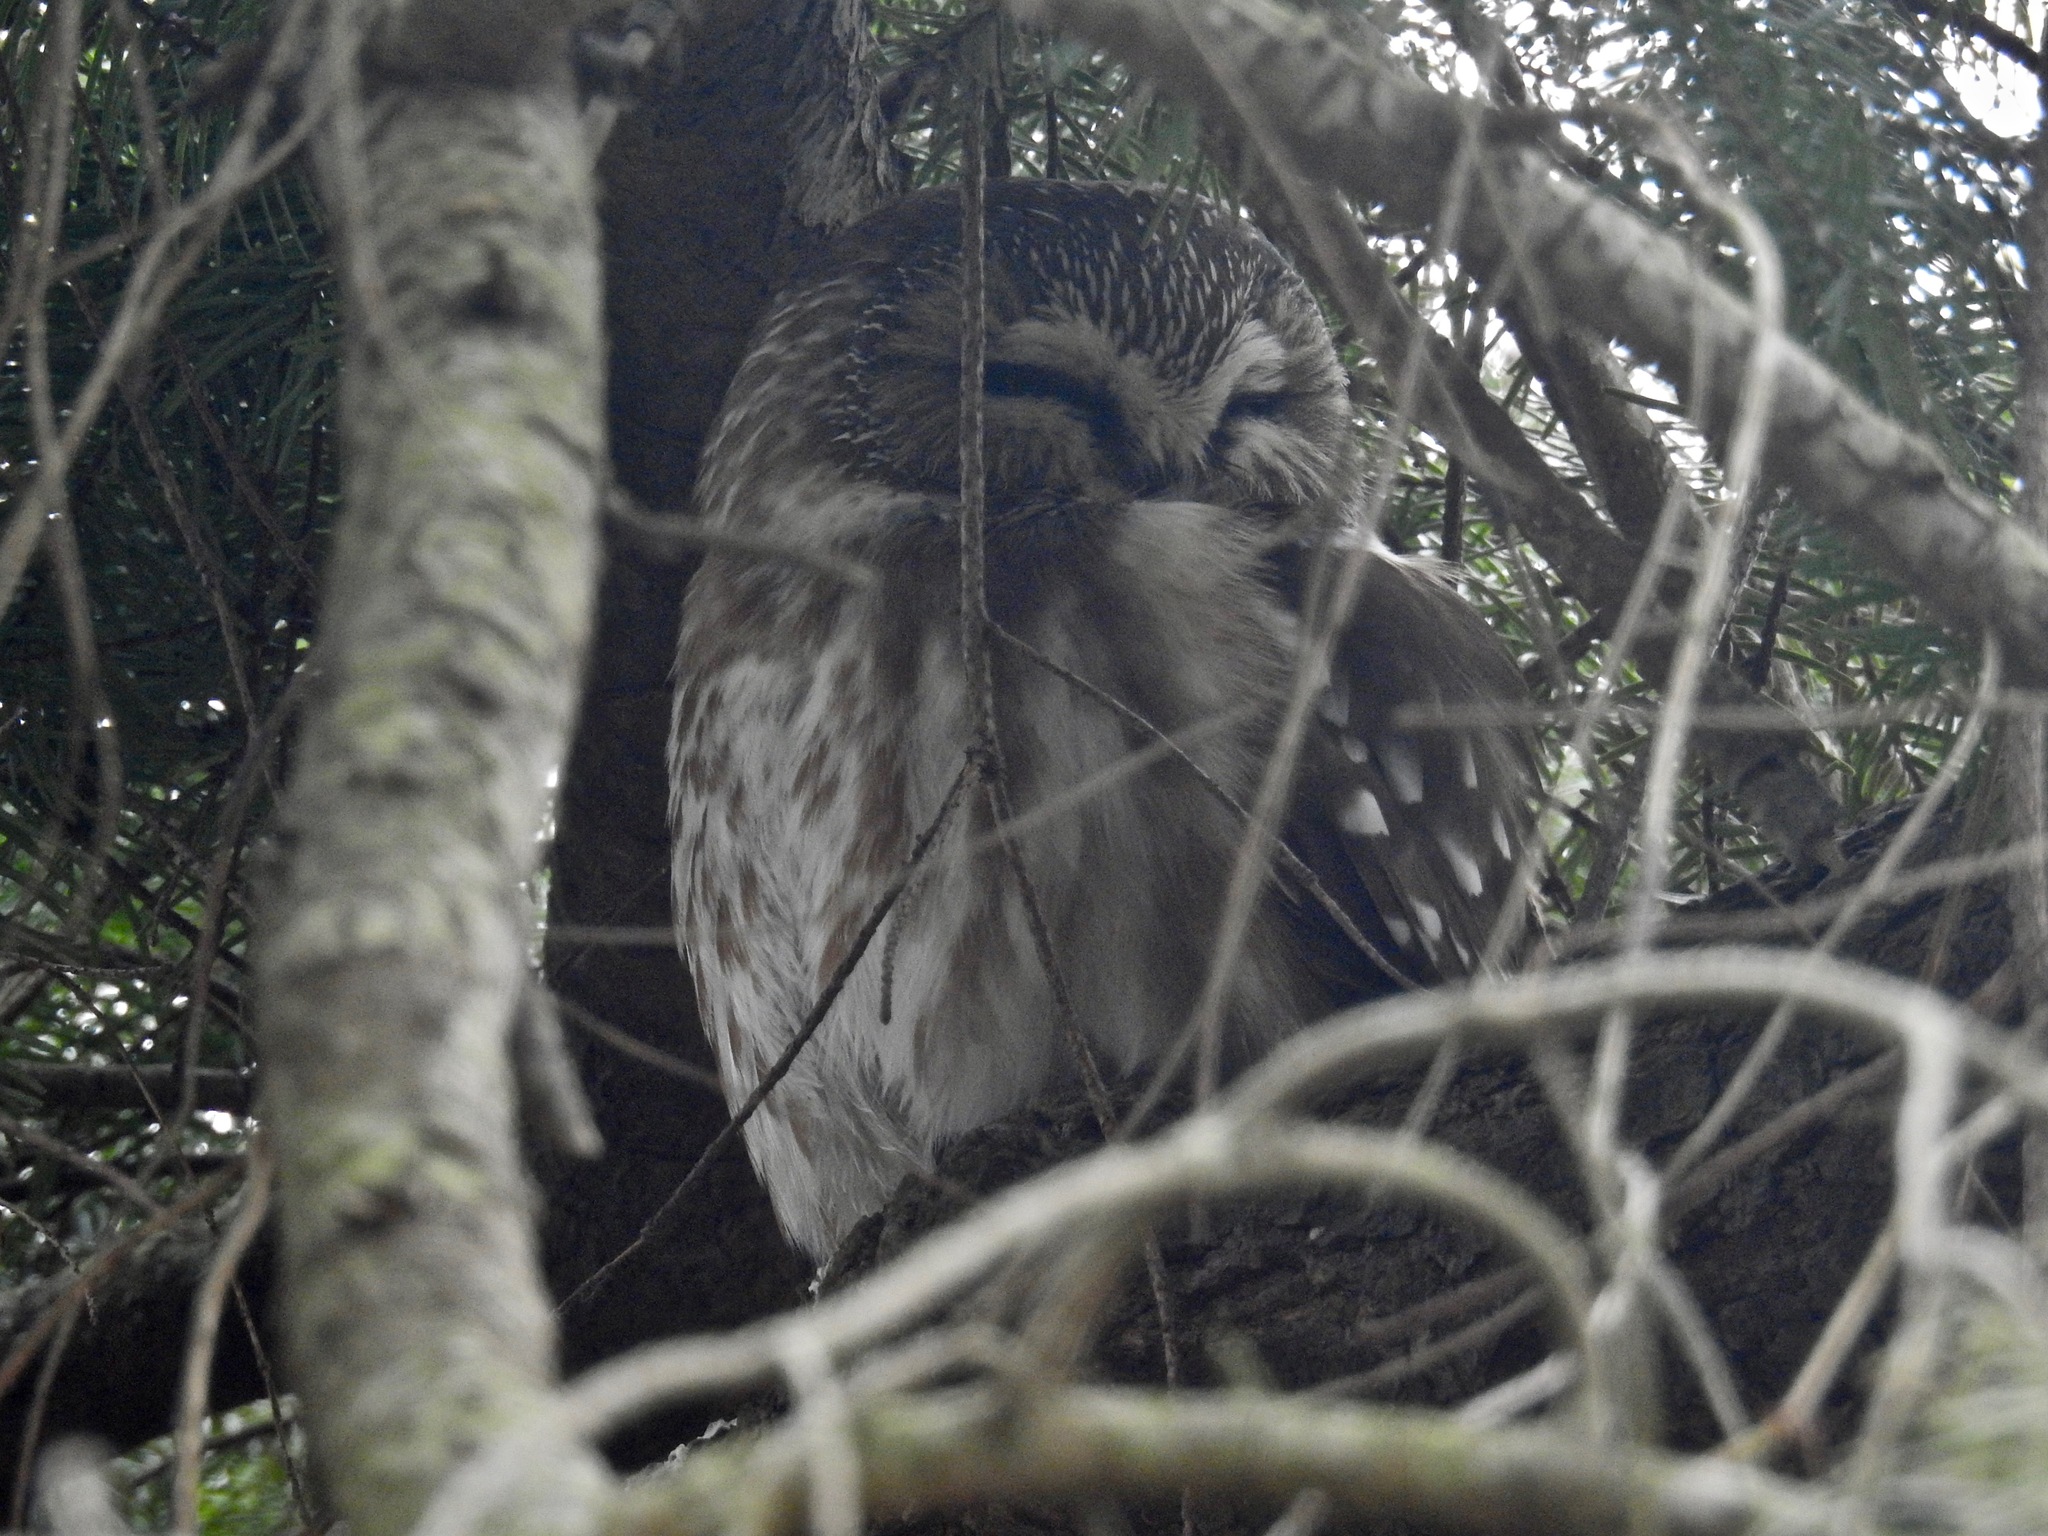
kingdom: Animalia
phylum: Chordata
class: Aves
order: Strigiformes
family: Strigidae
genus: Aegolius
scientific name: Aegolius acadicus
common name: Northern saw-whet owl
